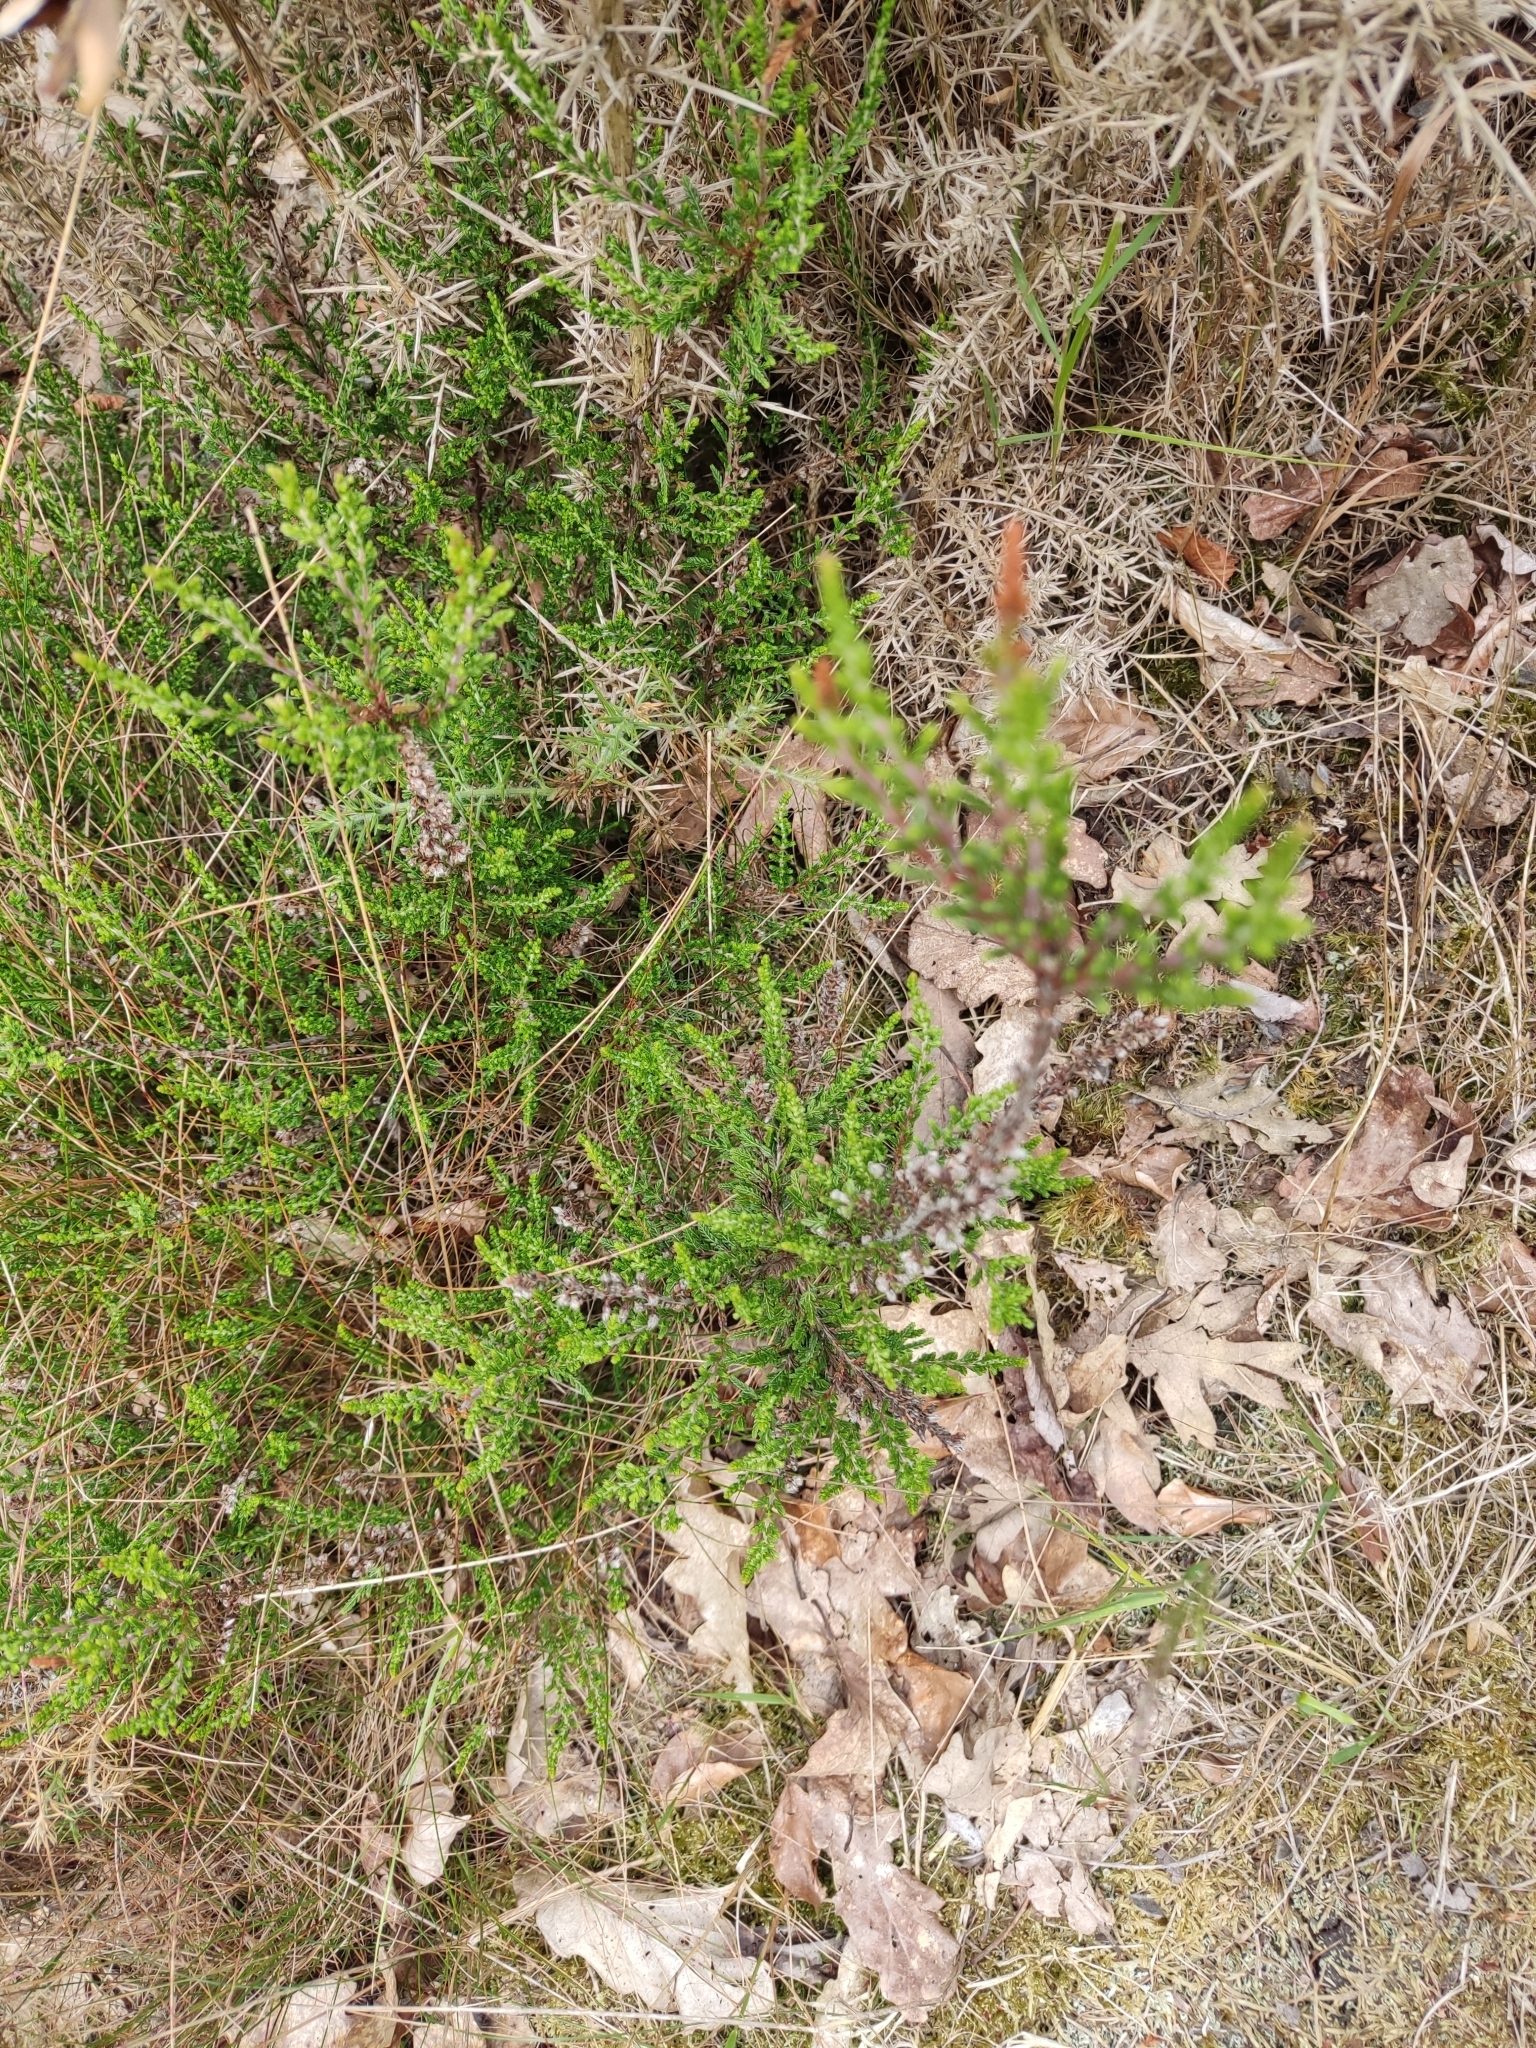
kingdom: Plantae
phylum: Tracheophyta
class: Magnoliopsida
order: Ericales
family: Ericaceae
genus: Calluna
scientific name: Calluna vulgaris
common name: Heather
